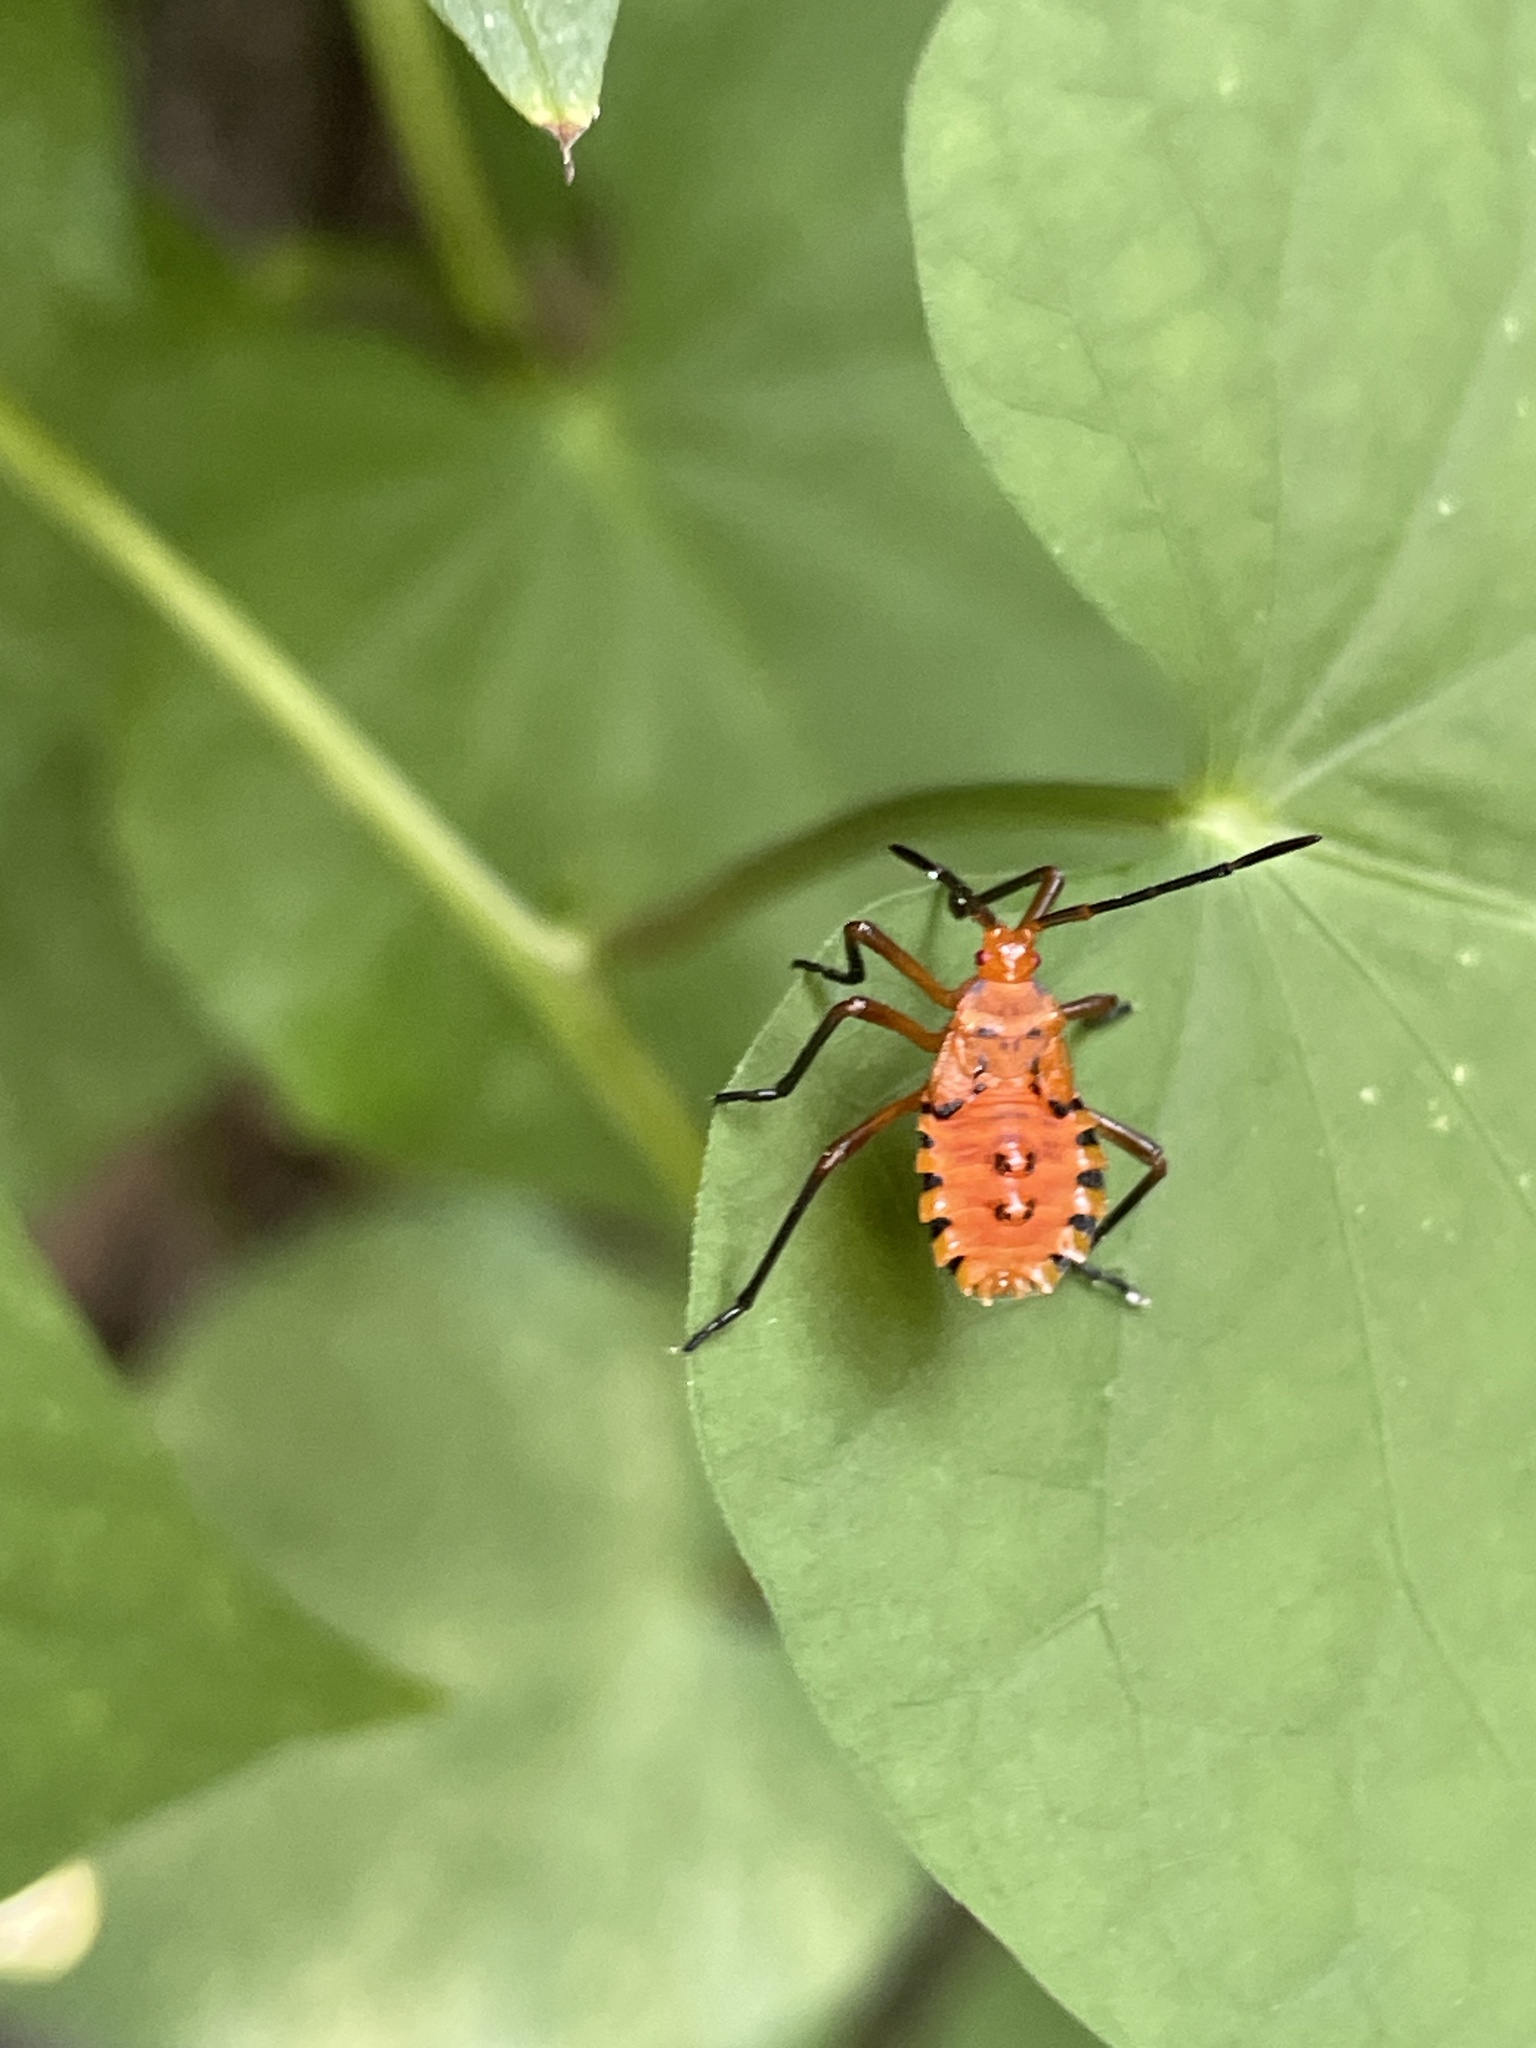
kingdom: Animalia
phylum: Arthropoda
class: Insecta
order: Hemiptera
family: Coreidae
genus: Spartocera
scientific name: Spartocera fusca
